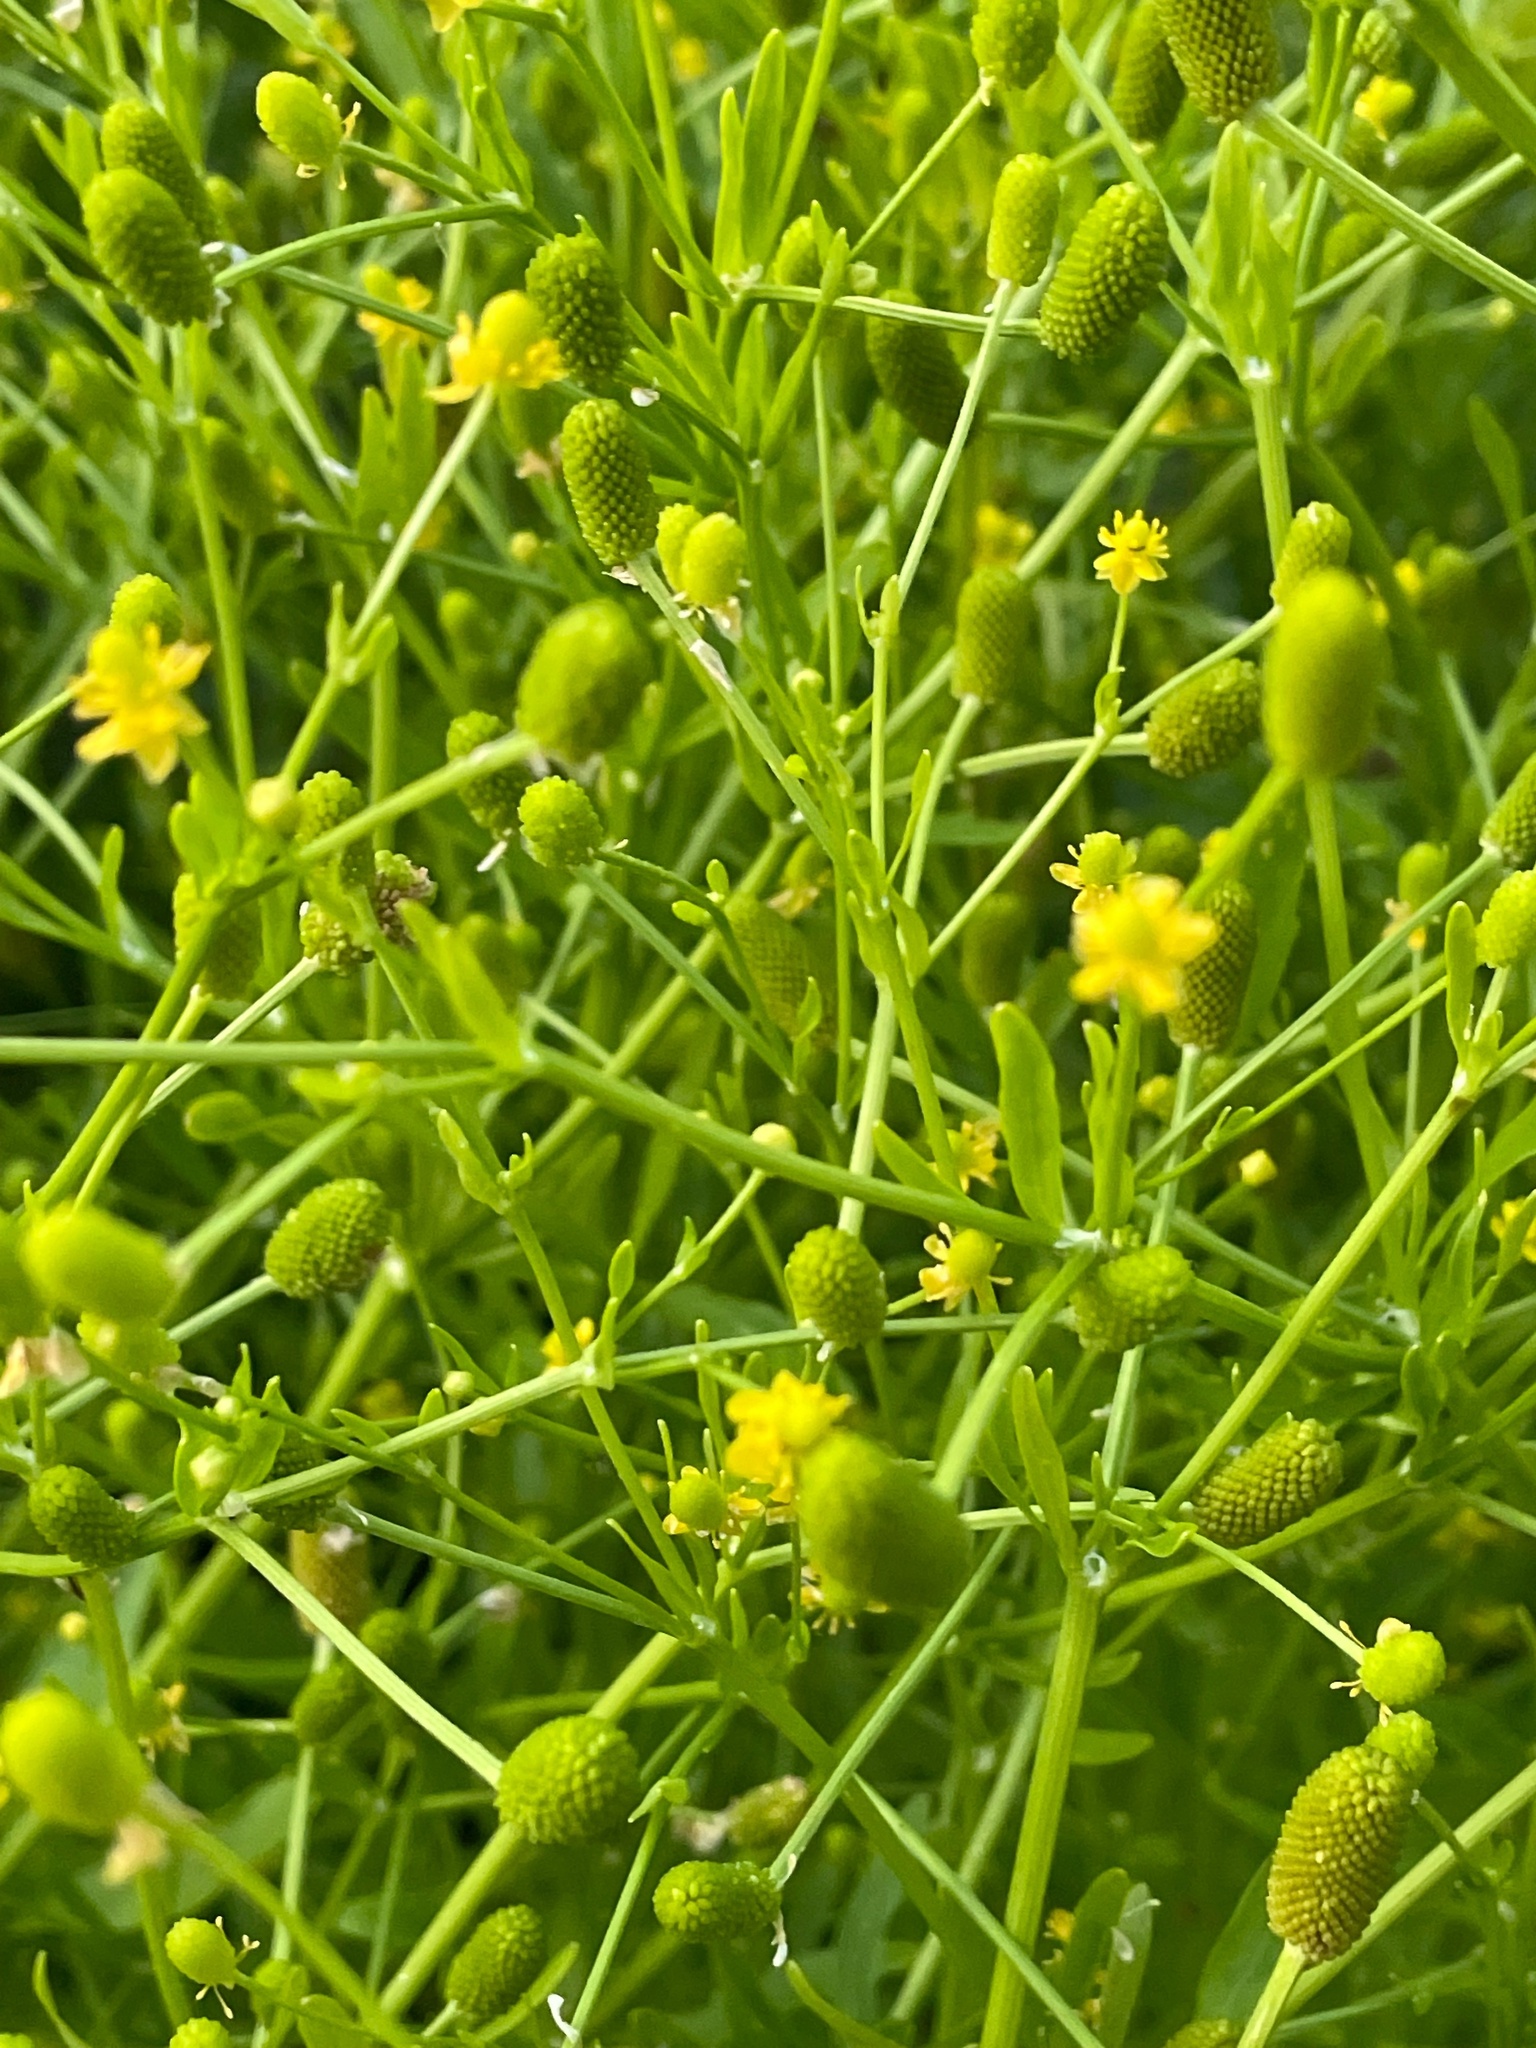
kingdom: Plantae
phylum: Tracheophyta
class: Magnoliopsida
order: Ranunculales
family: Ranunculaceae
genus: Ranunculus
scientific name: Ranunculus sceleratus
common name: Celery-leaved buttercup
